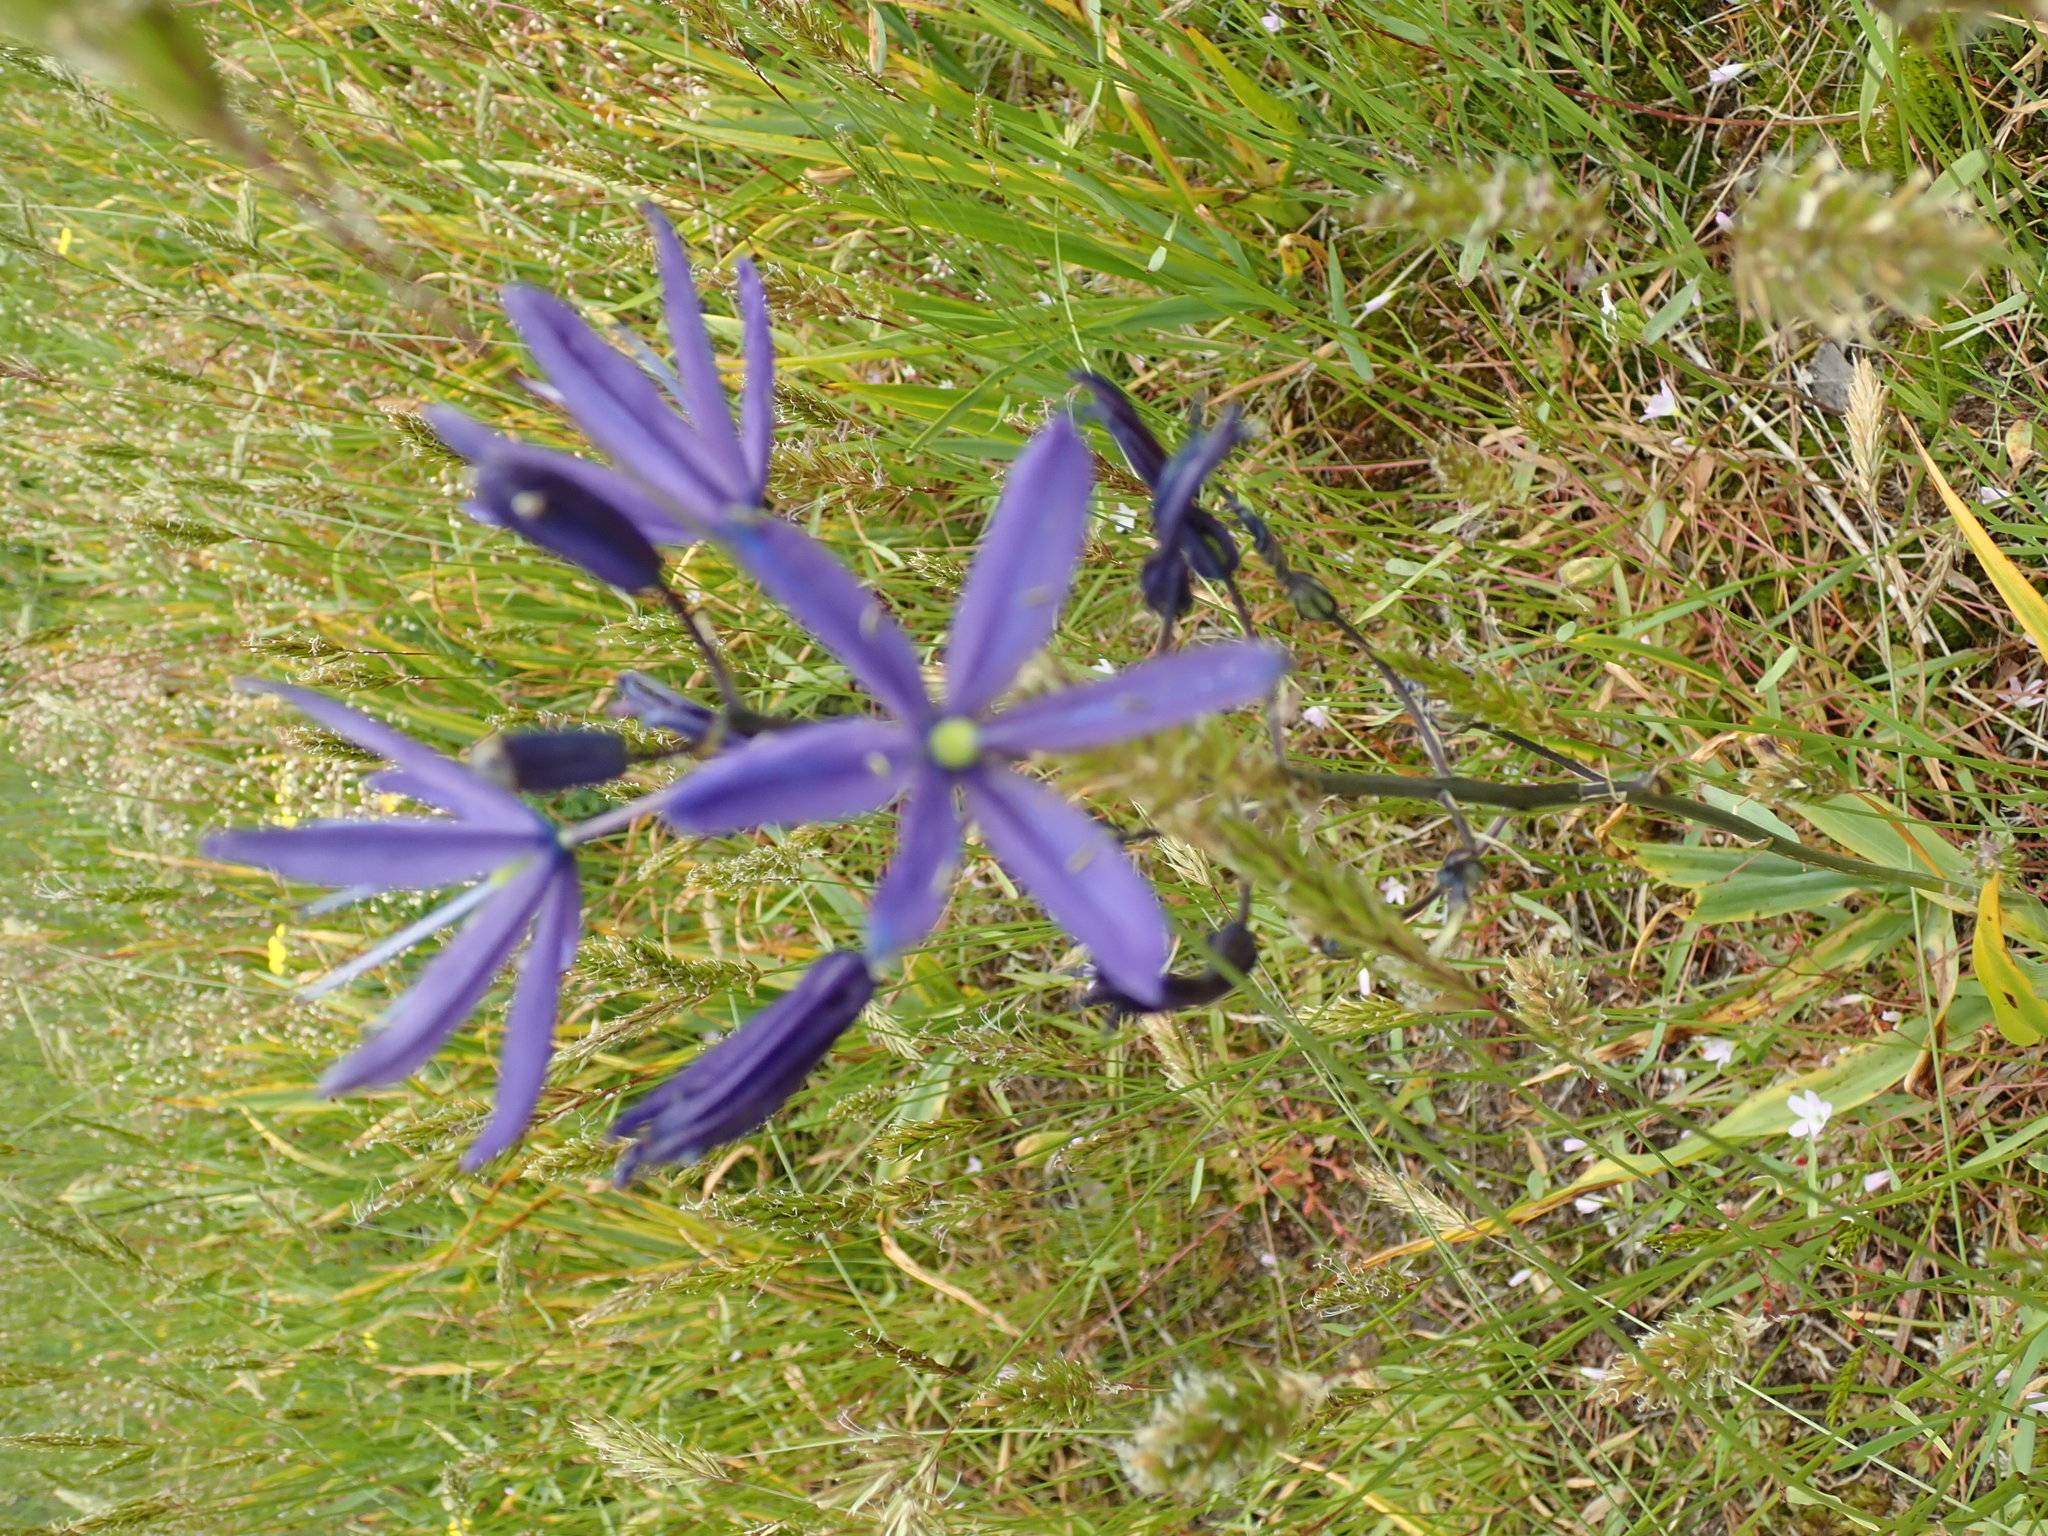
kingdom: Plantae
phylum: Tracheophyta
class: Liliopsida
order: Asparagales
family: Asparagaceae
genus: Camassia
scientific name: Camassia leichtlinii
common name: Leichtlin's camas
